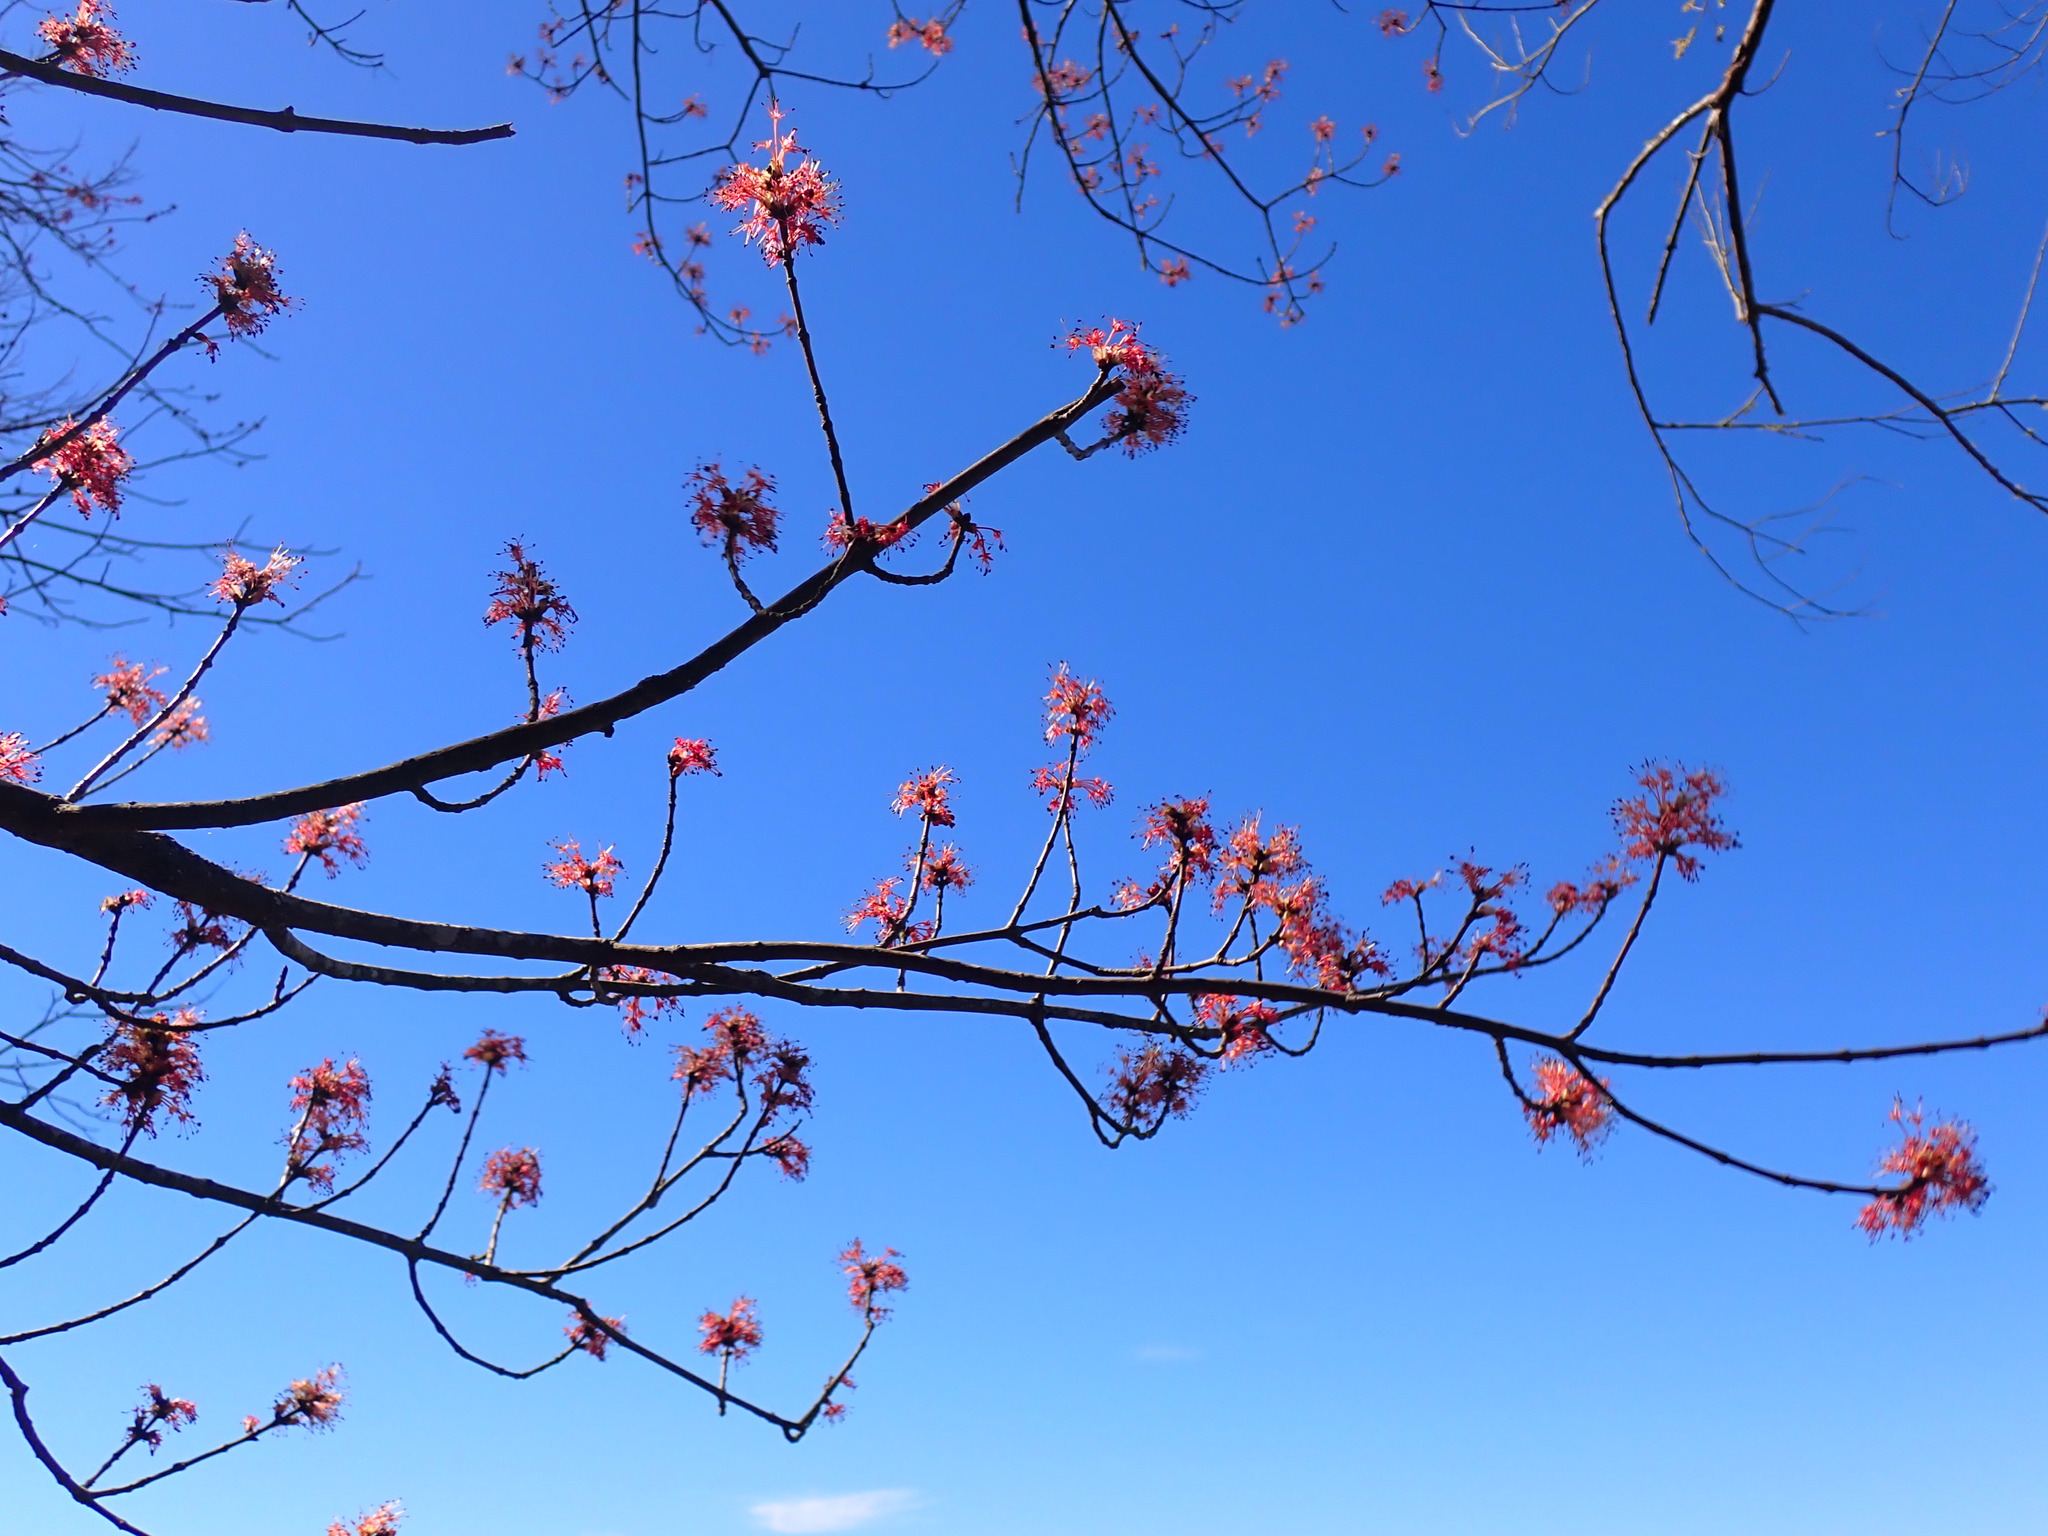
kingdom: Plantae
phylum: Tracheophyta
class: Magnoliopsida
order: Sapindales
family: Sapindaceae
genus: Acer
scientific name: Acer rubrum
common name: Red maple
